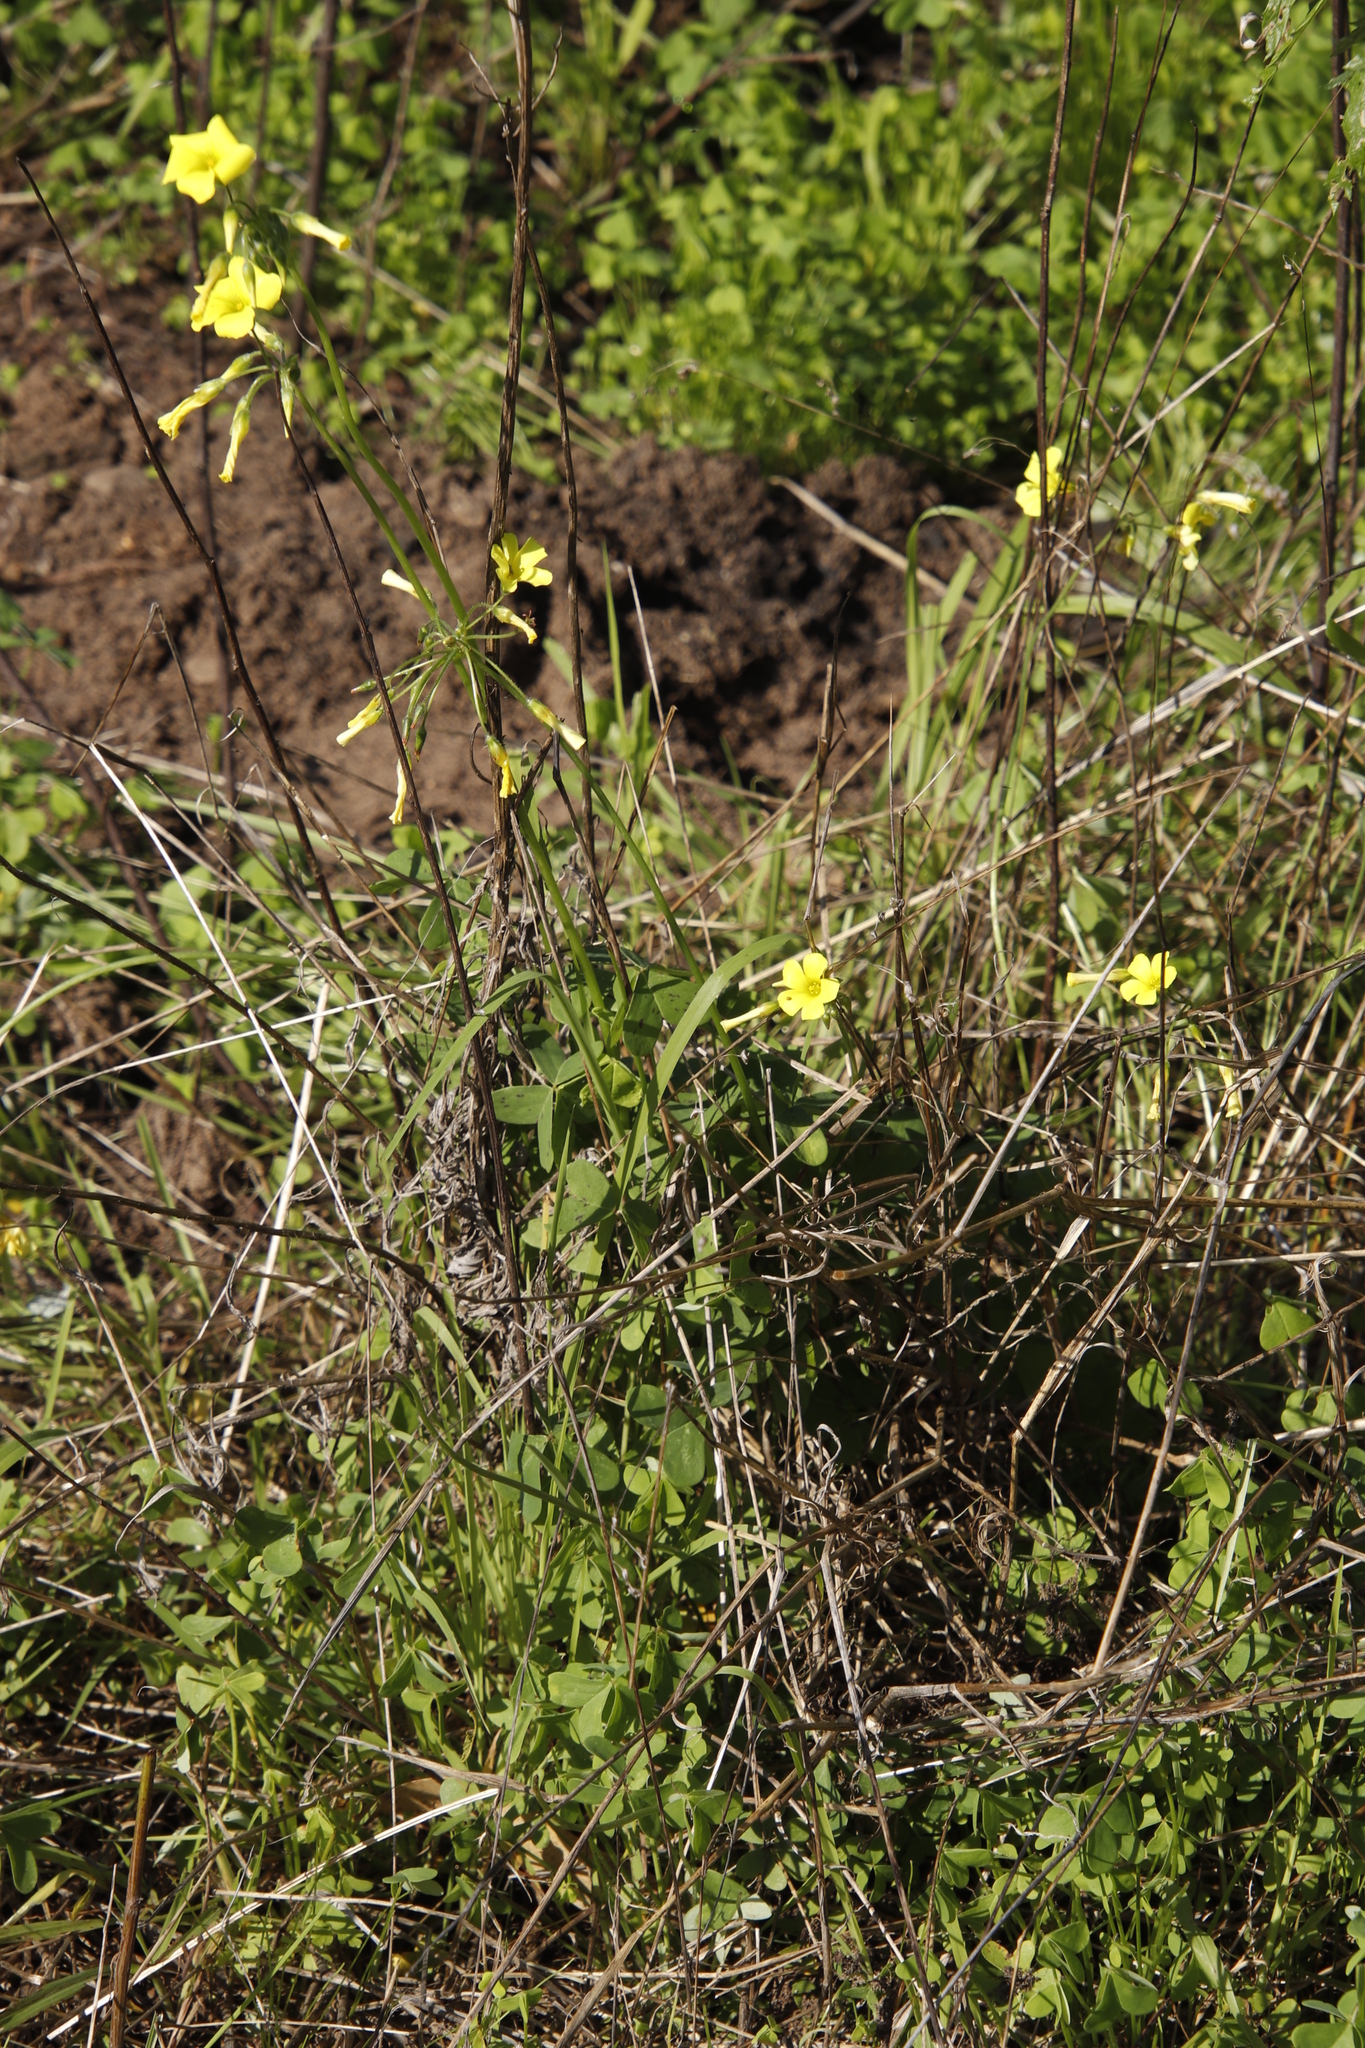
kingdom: Plantae
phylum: Tracheophyta
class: Magnoliopsida
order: Oxalidales
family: Oxalidaceae
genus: Oxalis
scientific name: Oxalis pes-caprae
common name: Bermuda-buttercup
